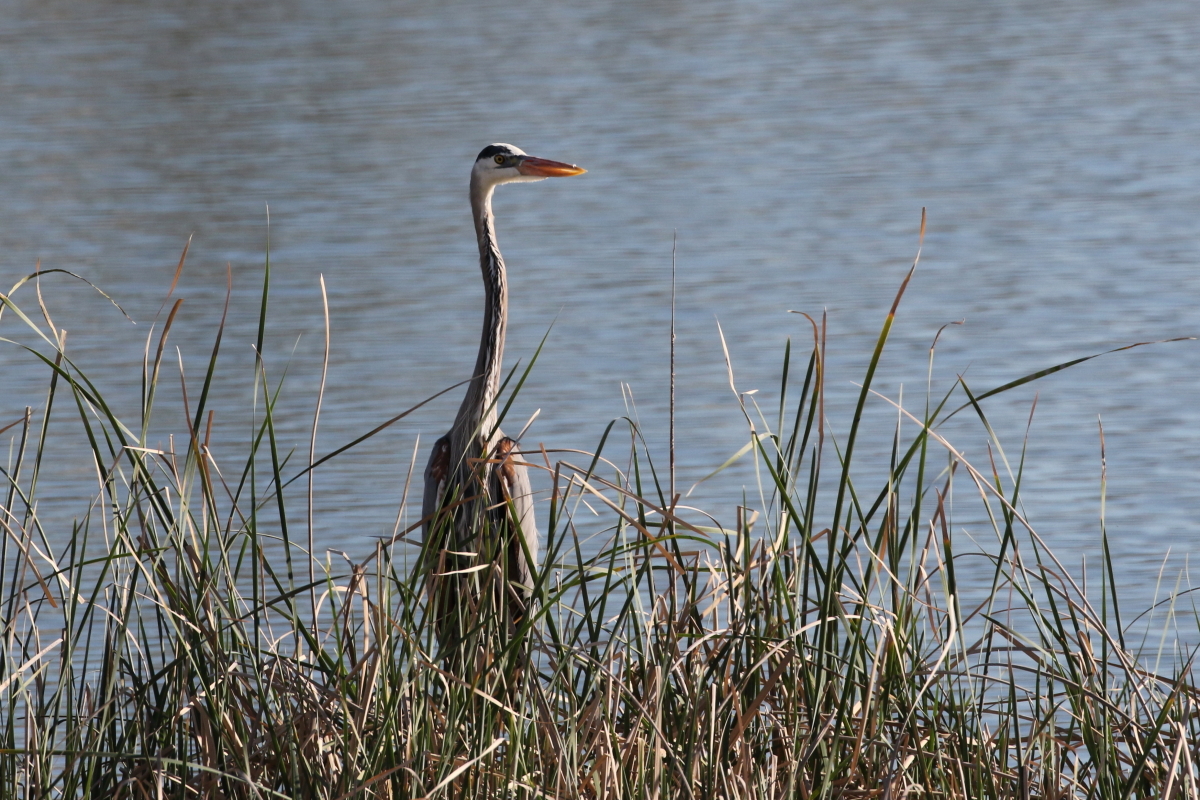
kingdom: Animalia
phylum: Chordata
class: Aves
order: Pelecaniformes
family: Ardeidae
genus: Ardea
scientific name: Ardea herodias
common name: Great blue heron
